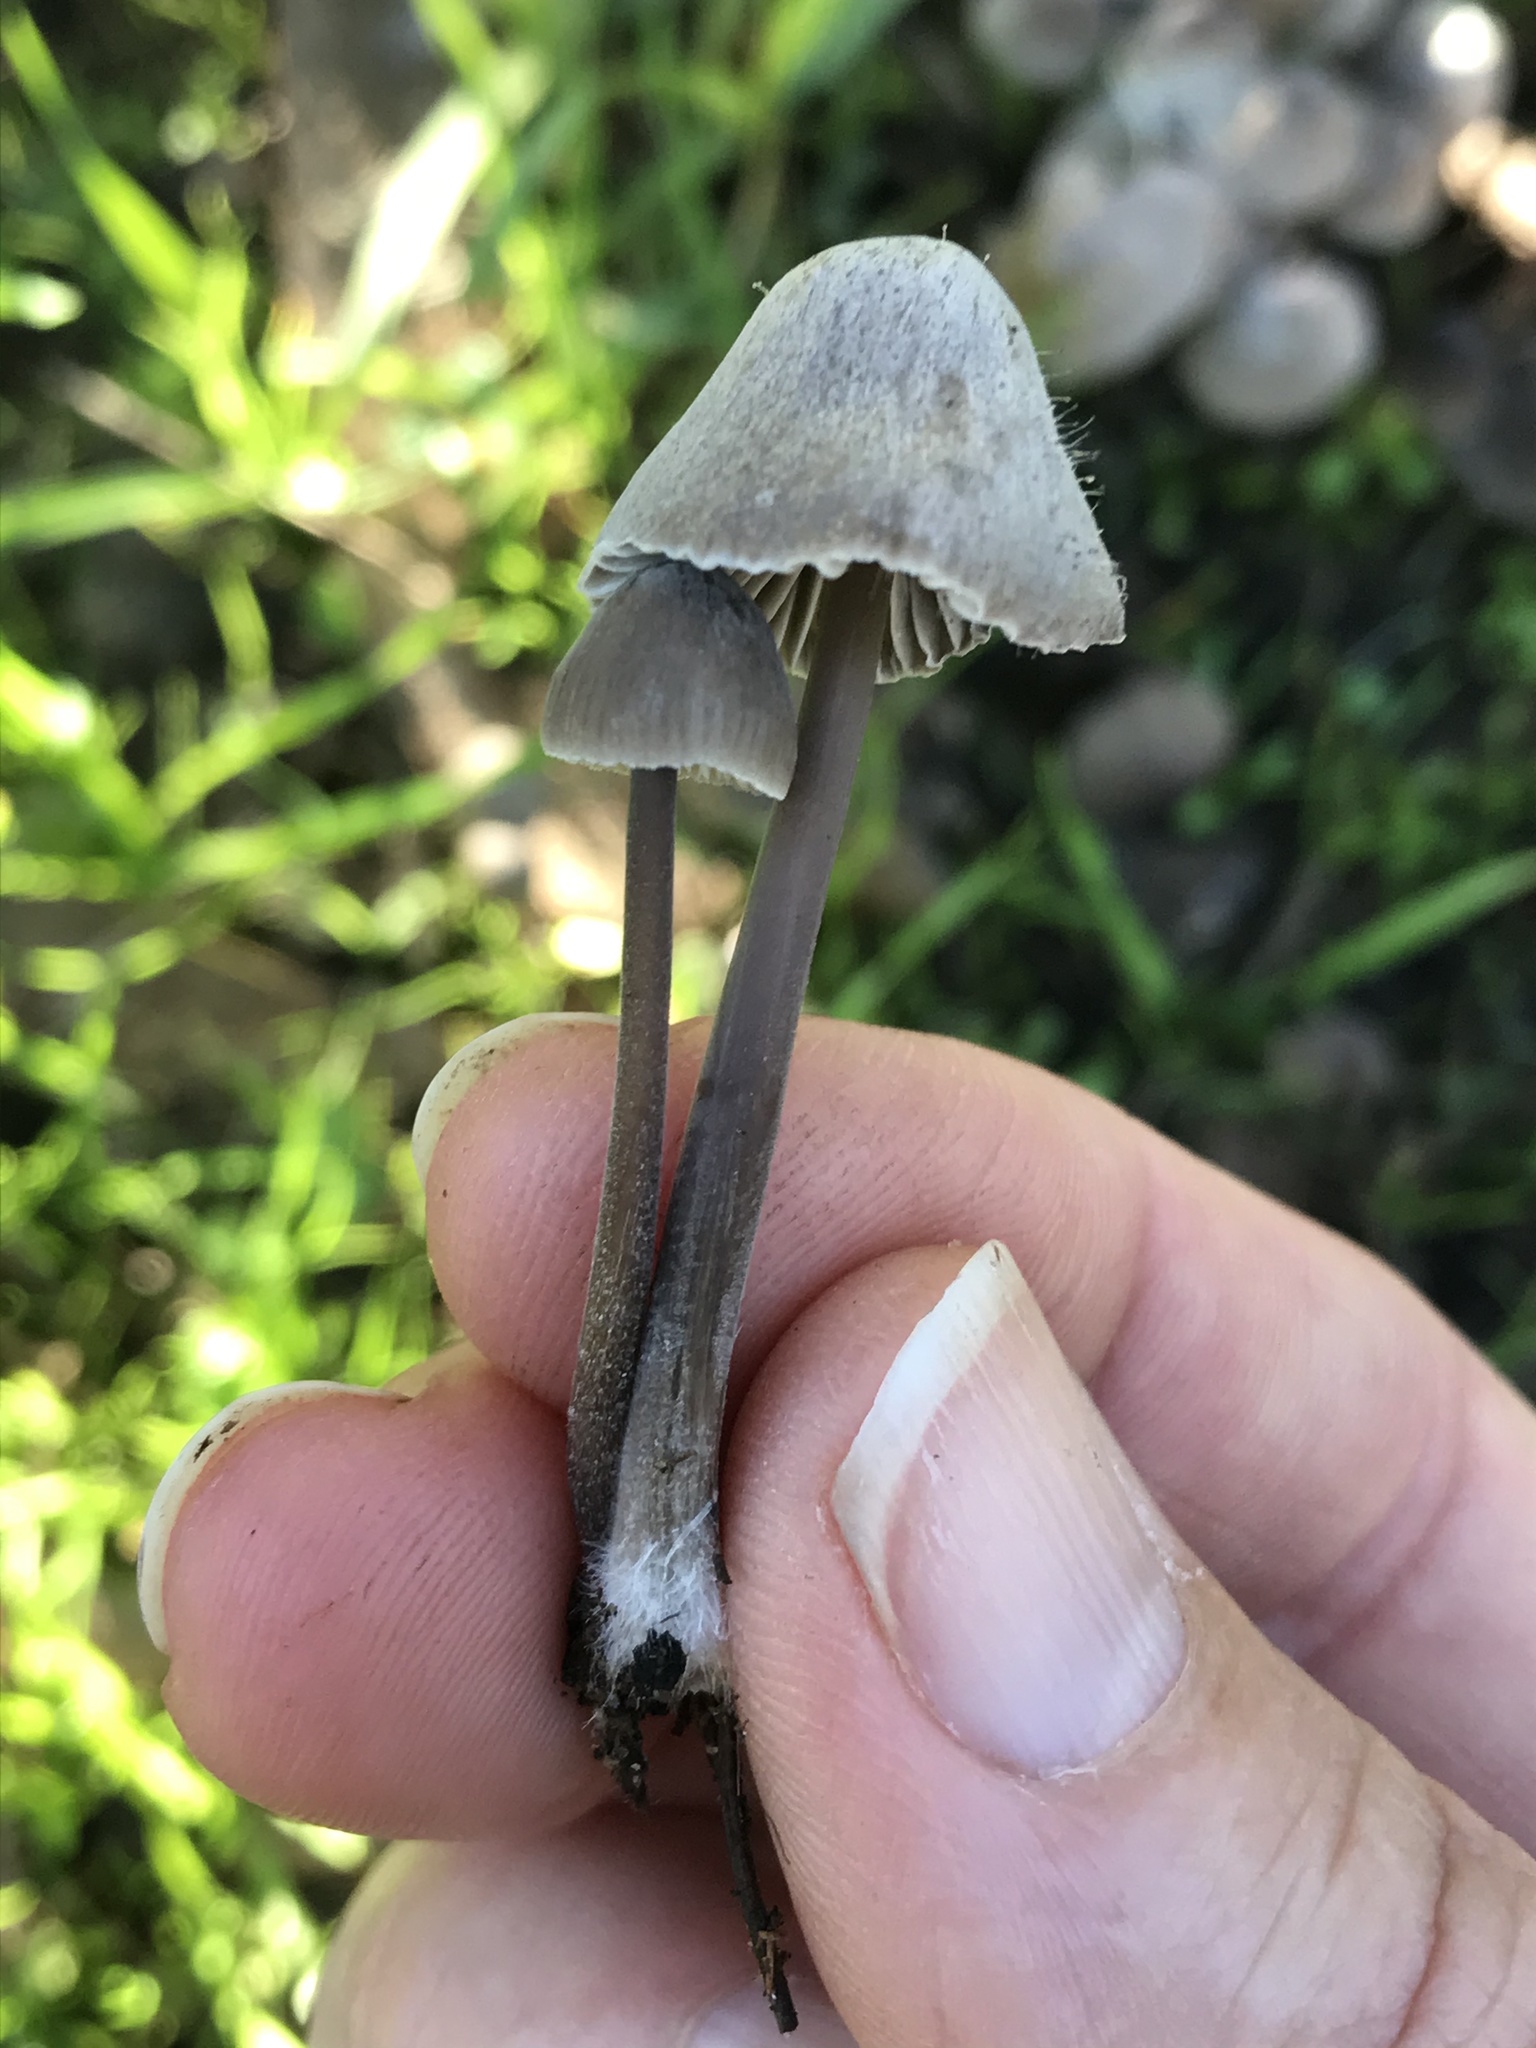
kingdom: Fungi
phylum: Basidiomycota
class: Agaricomycetes
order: Agaricales
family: Mycenaceae
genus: Mycena
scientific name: Mycena leptocephala
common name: Nitrous bonnet
